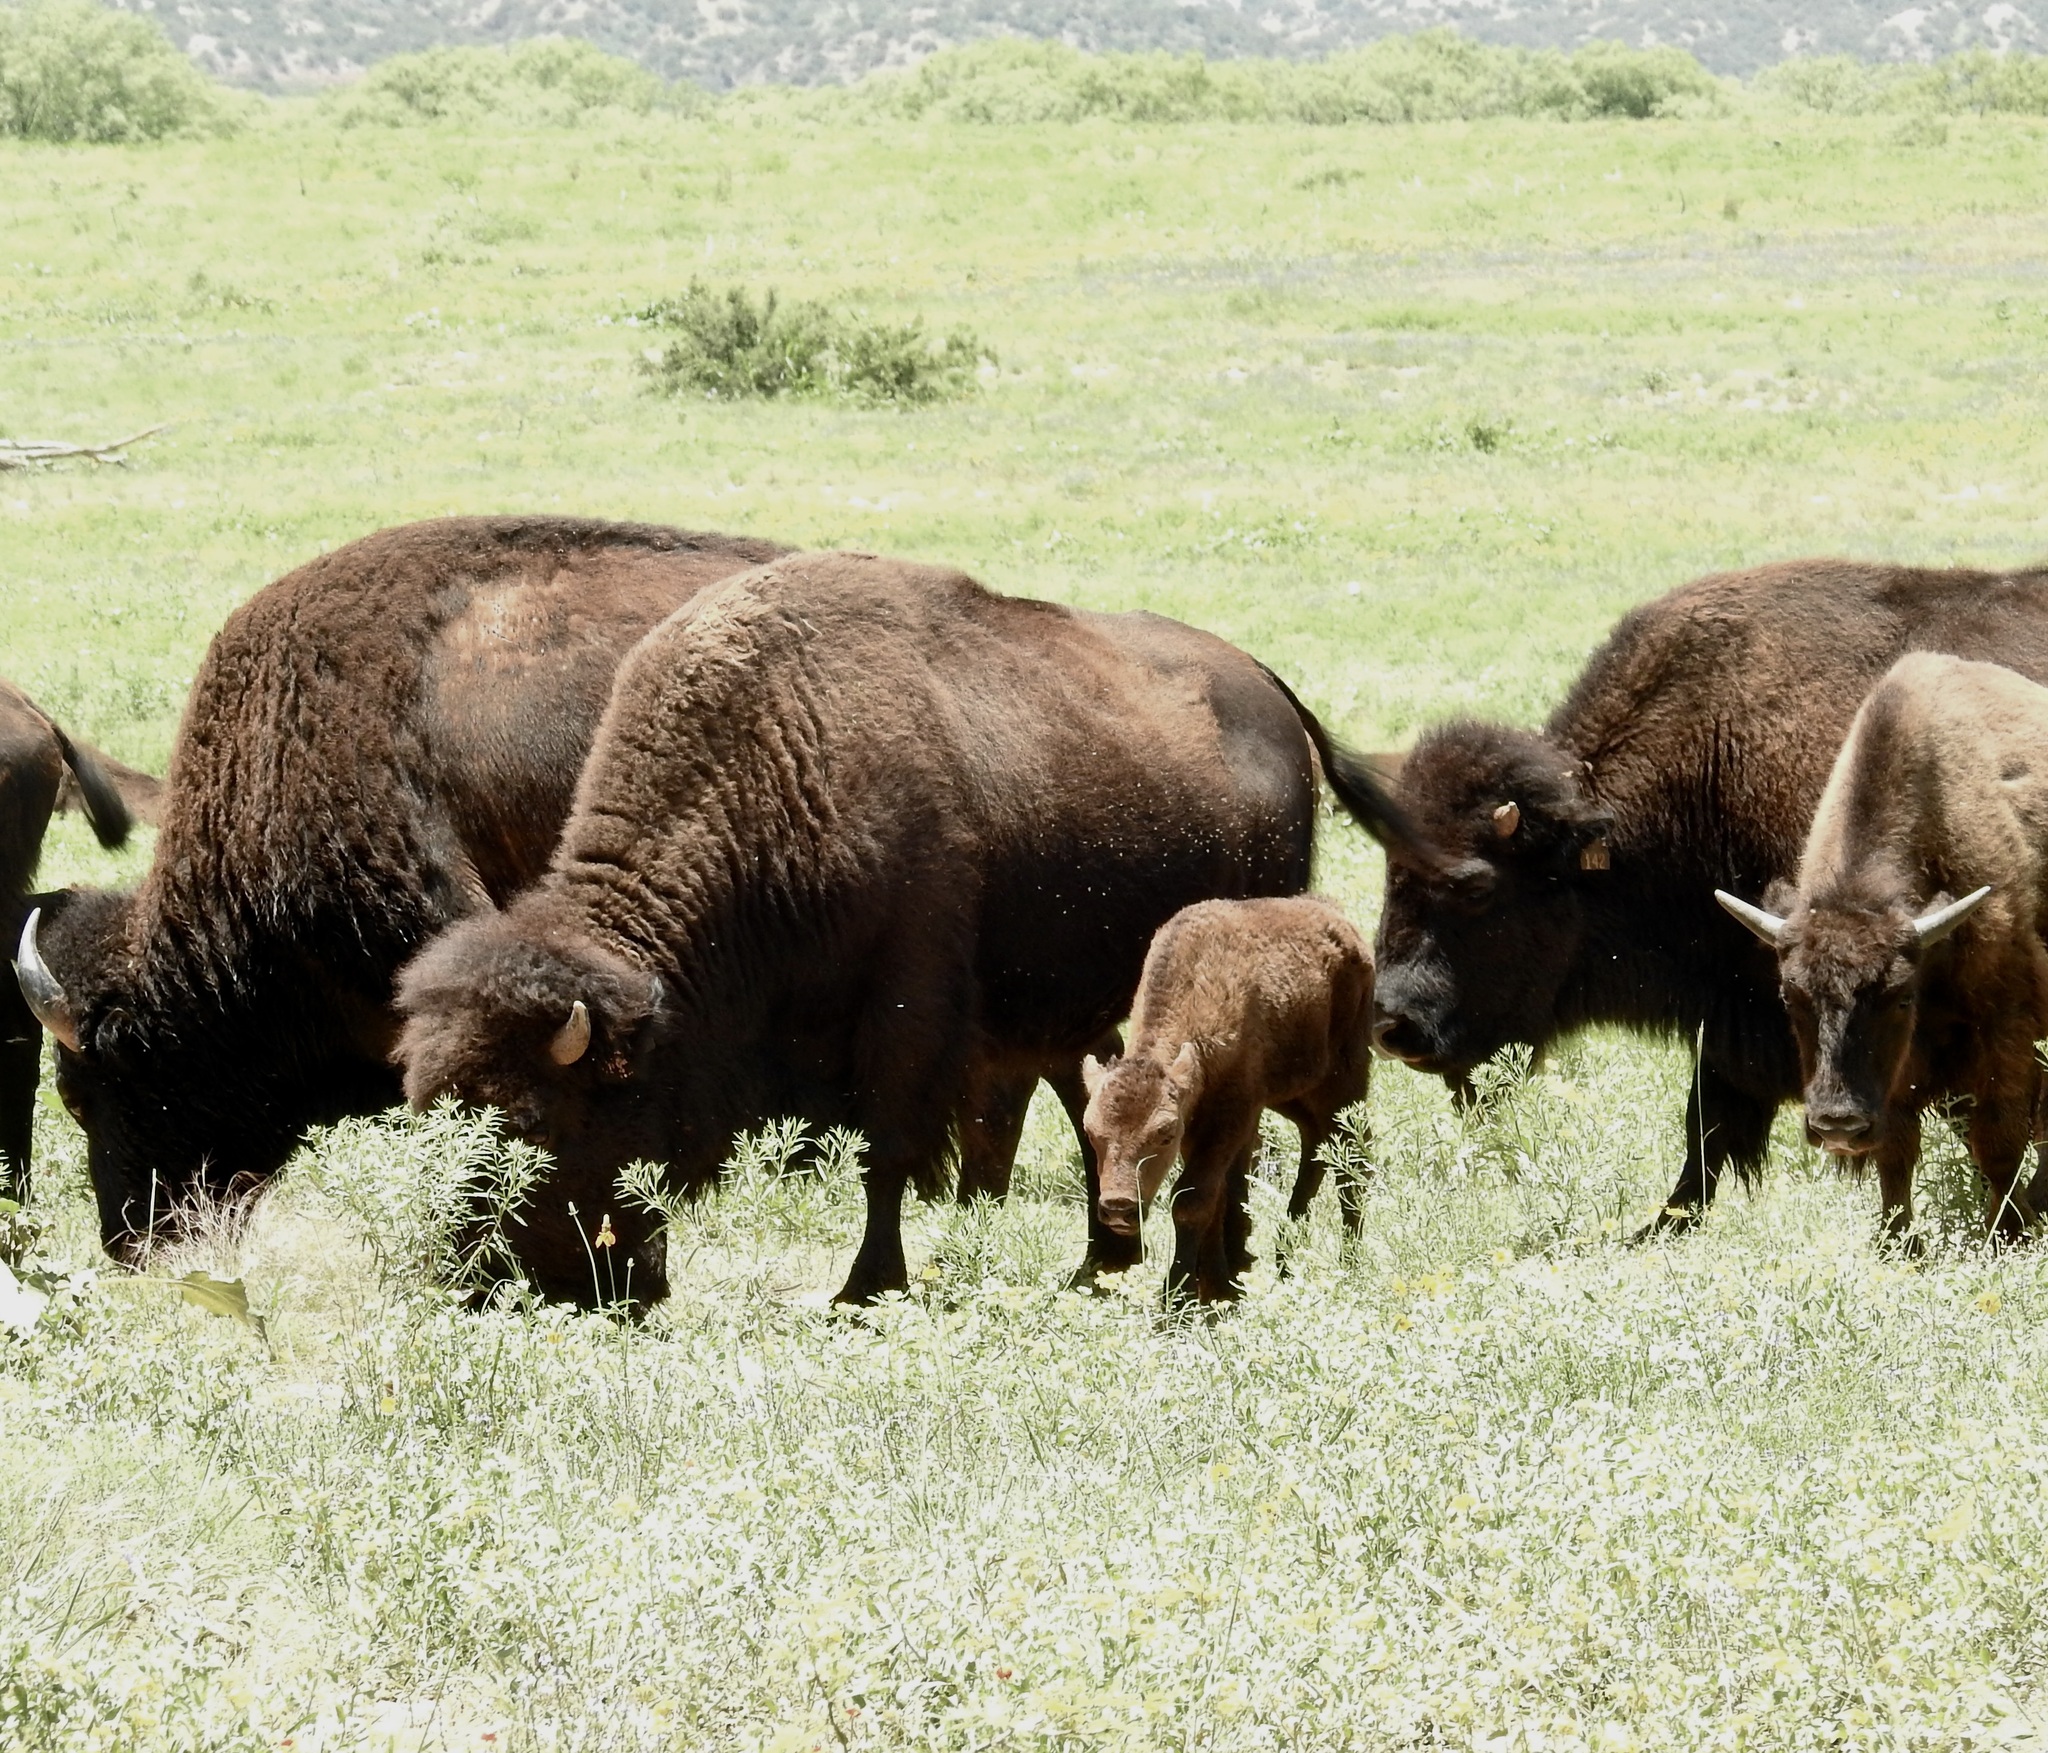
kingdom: Animalia
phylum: Chordata
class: Mammalia
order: Artiodactyla
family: Bovidae
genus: Bison
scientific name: Bison bison
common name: American bison
